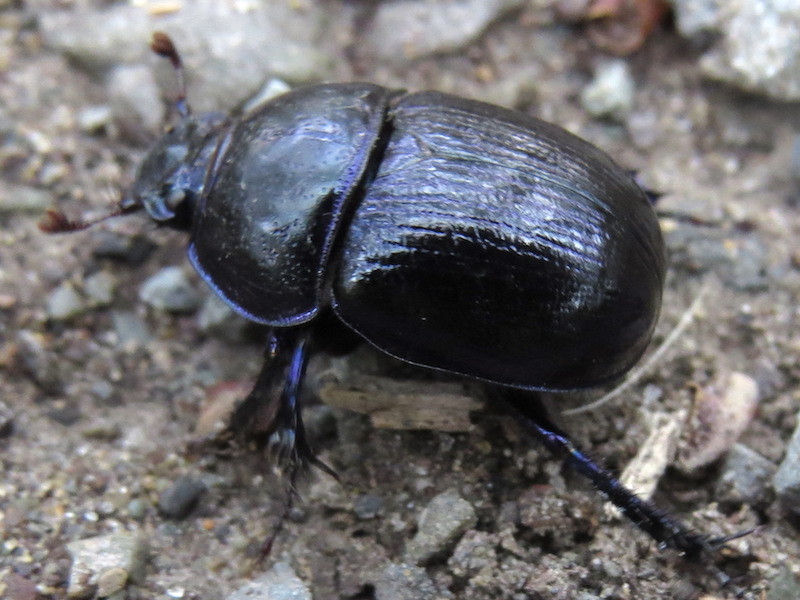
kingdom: Animalia
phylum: Arthropoda
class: Insecta
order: Coleoptera
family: Geotrupidae
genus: Anoplotrupes
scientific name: Anoplotrupes stercorosus
